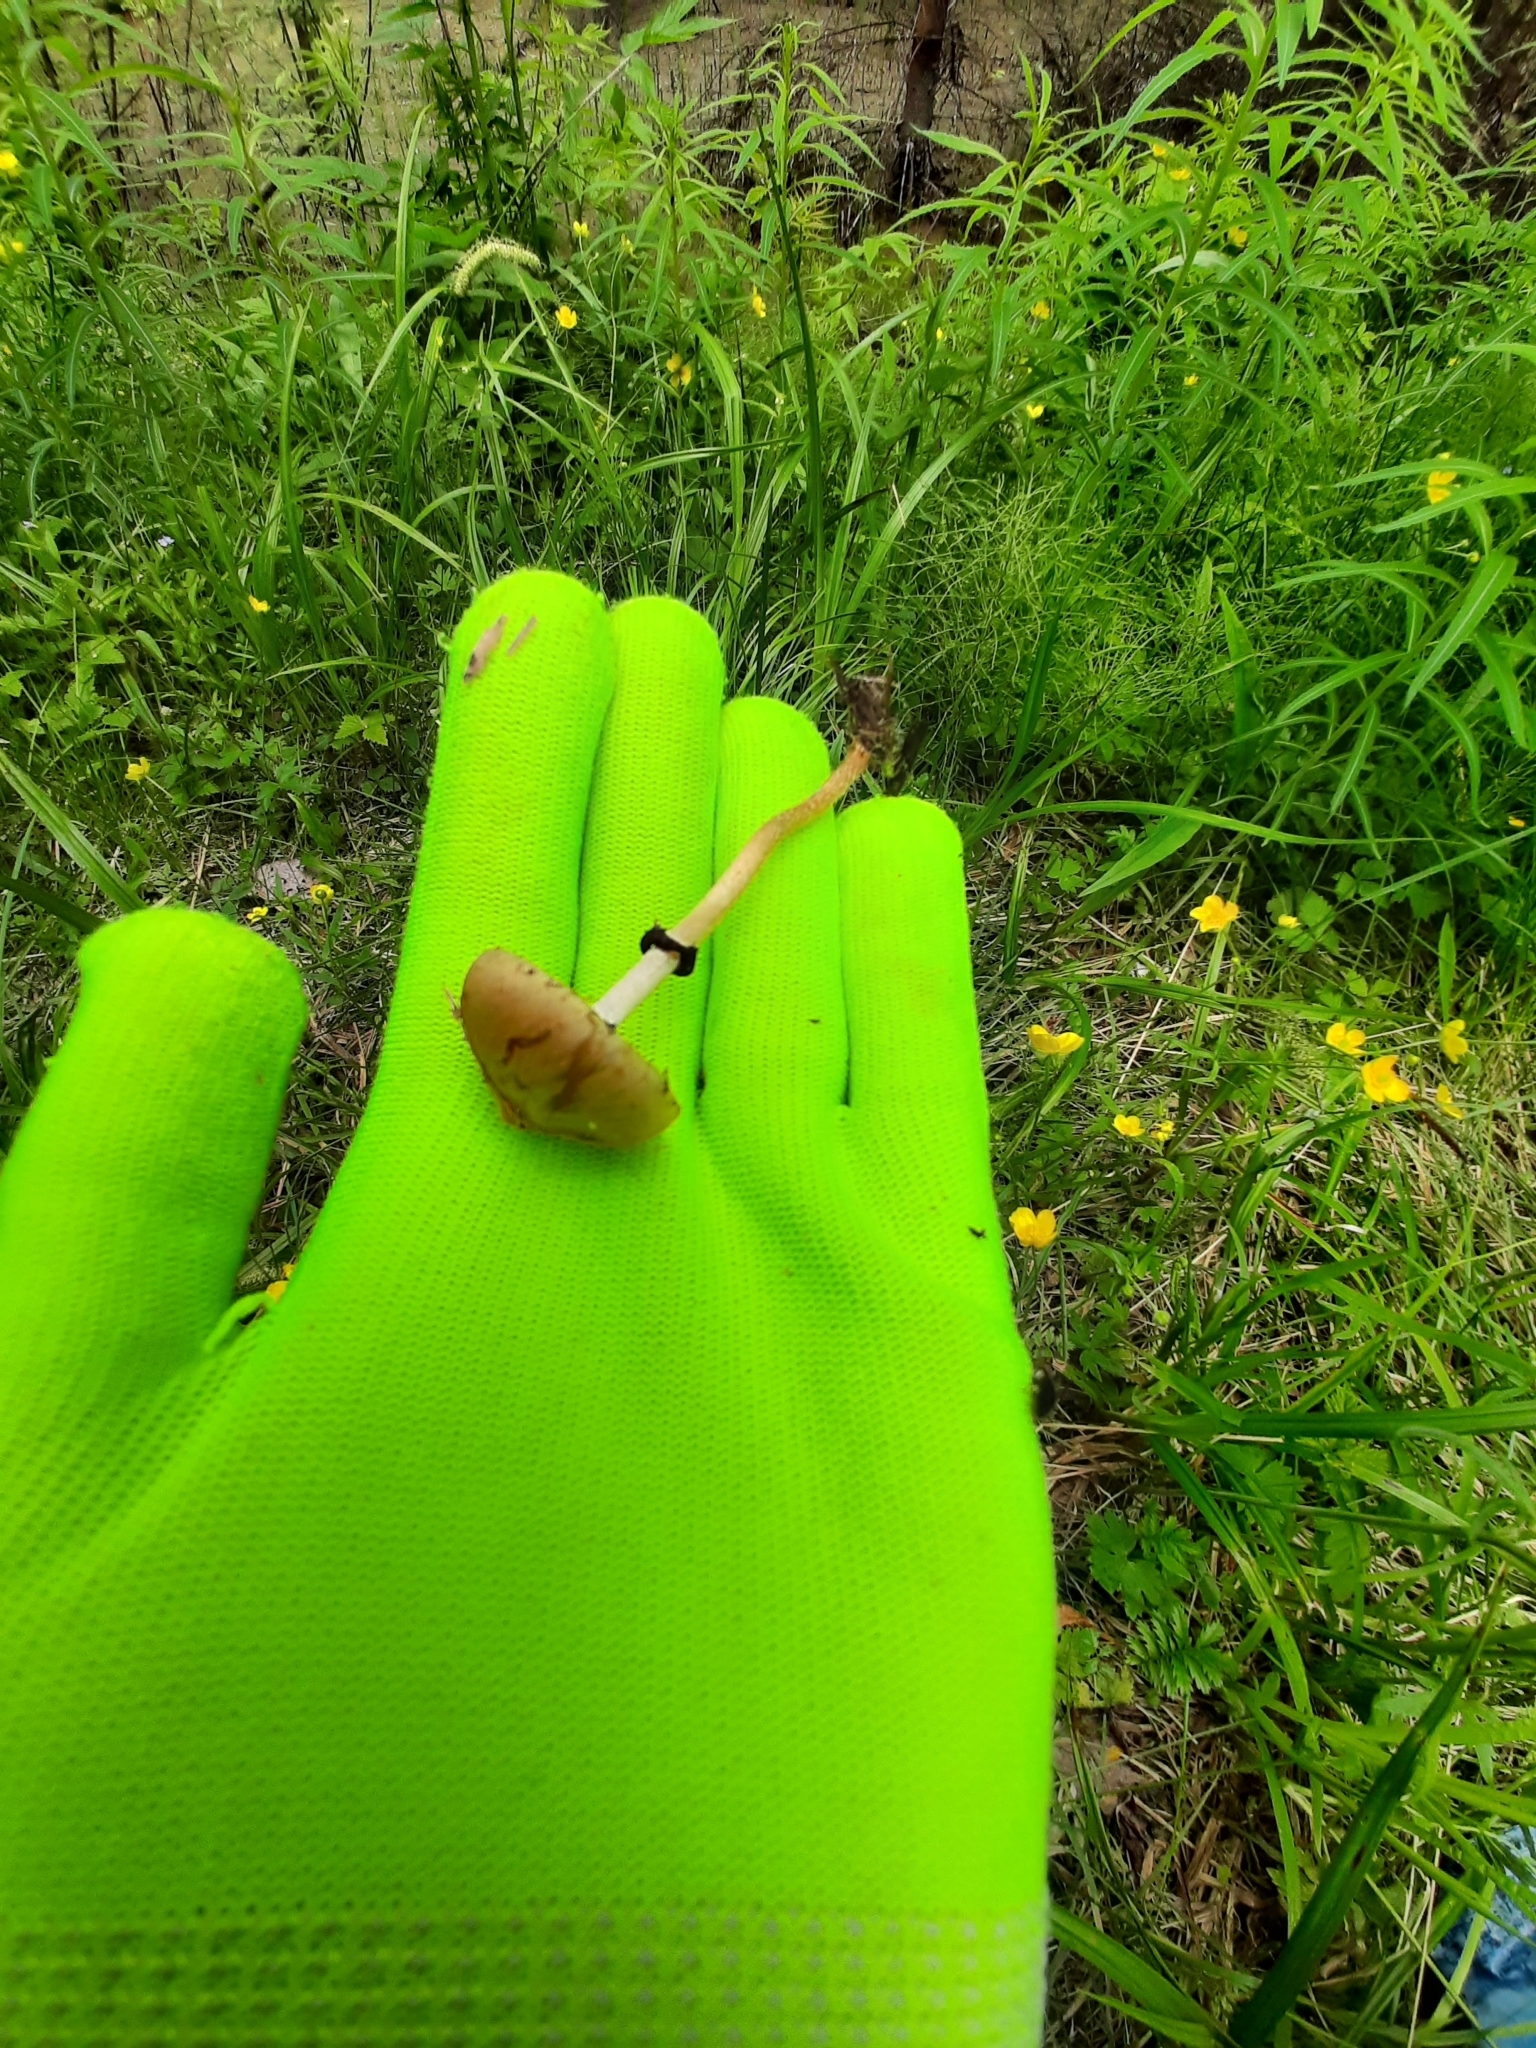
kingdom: Fungi
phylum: Basidiomycota
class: Agaricomycetes
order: Agaricales
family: Strophariaceae
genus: Leratiomyces
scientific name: Leratiomyces magnivelaris
